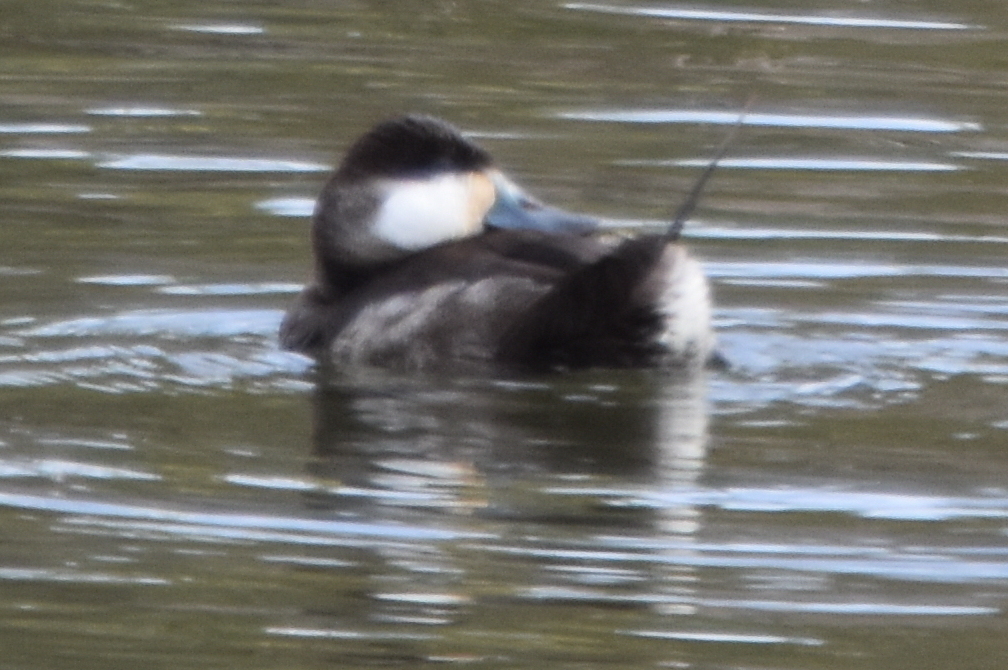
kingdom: Animalia
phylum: Chordata
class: Aves
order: Anseriformes
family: Anatidae
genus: Oxyura
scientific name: Oxyura jamaicensis
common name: Ruddy duck
